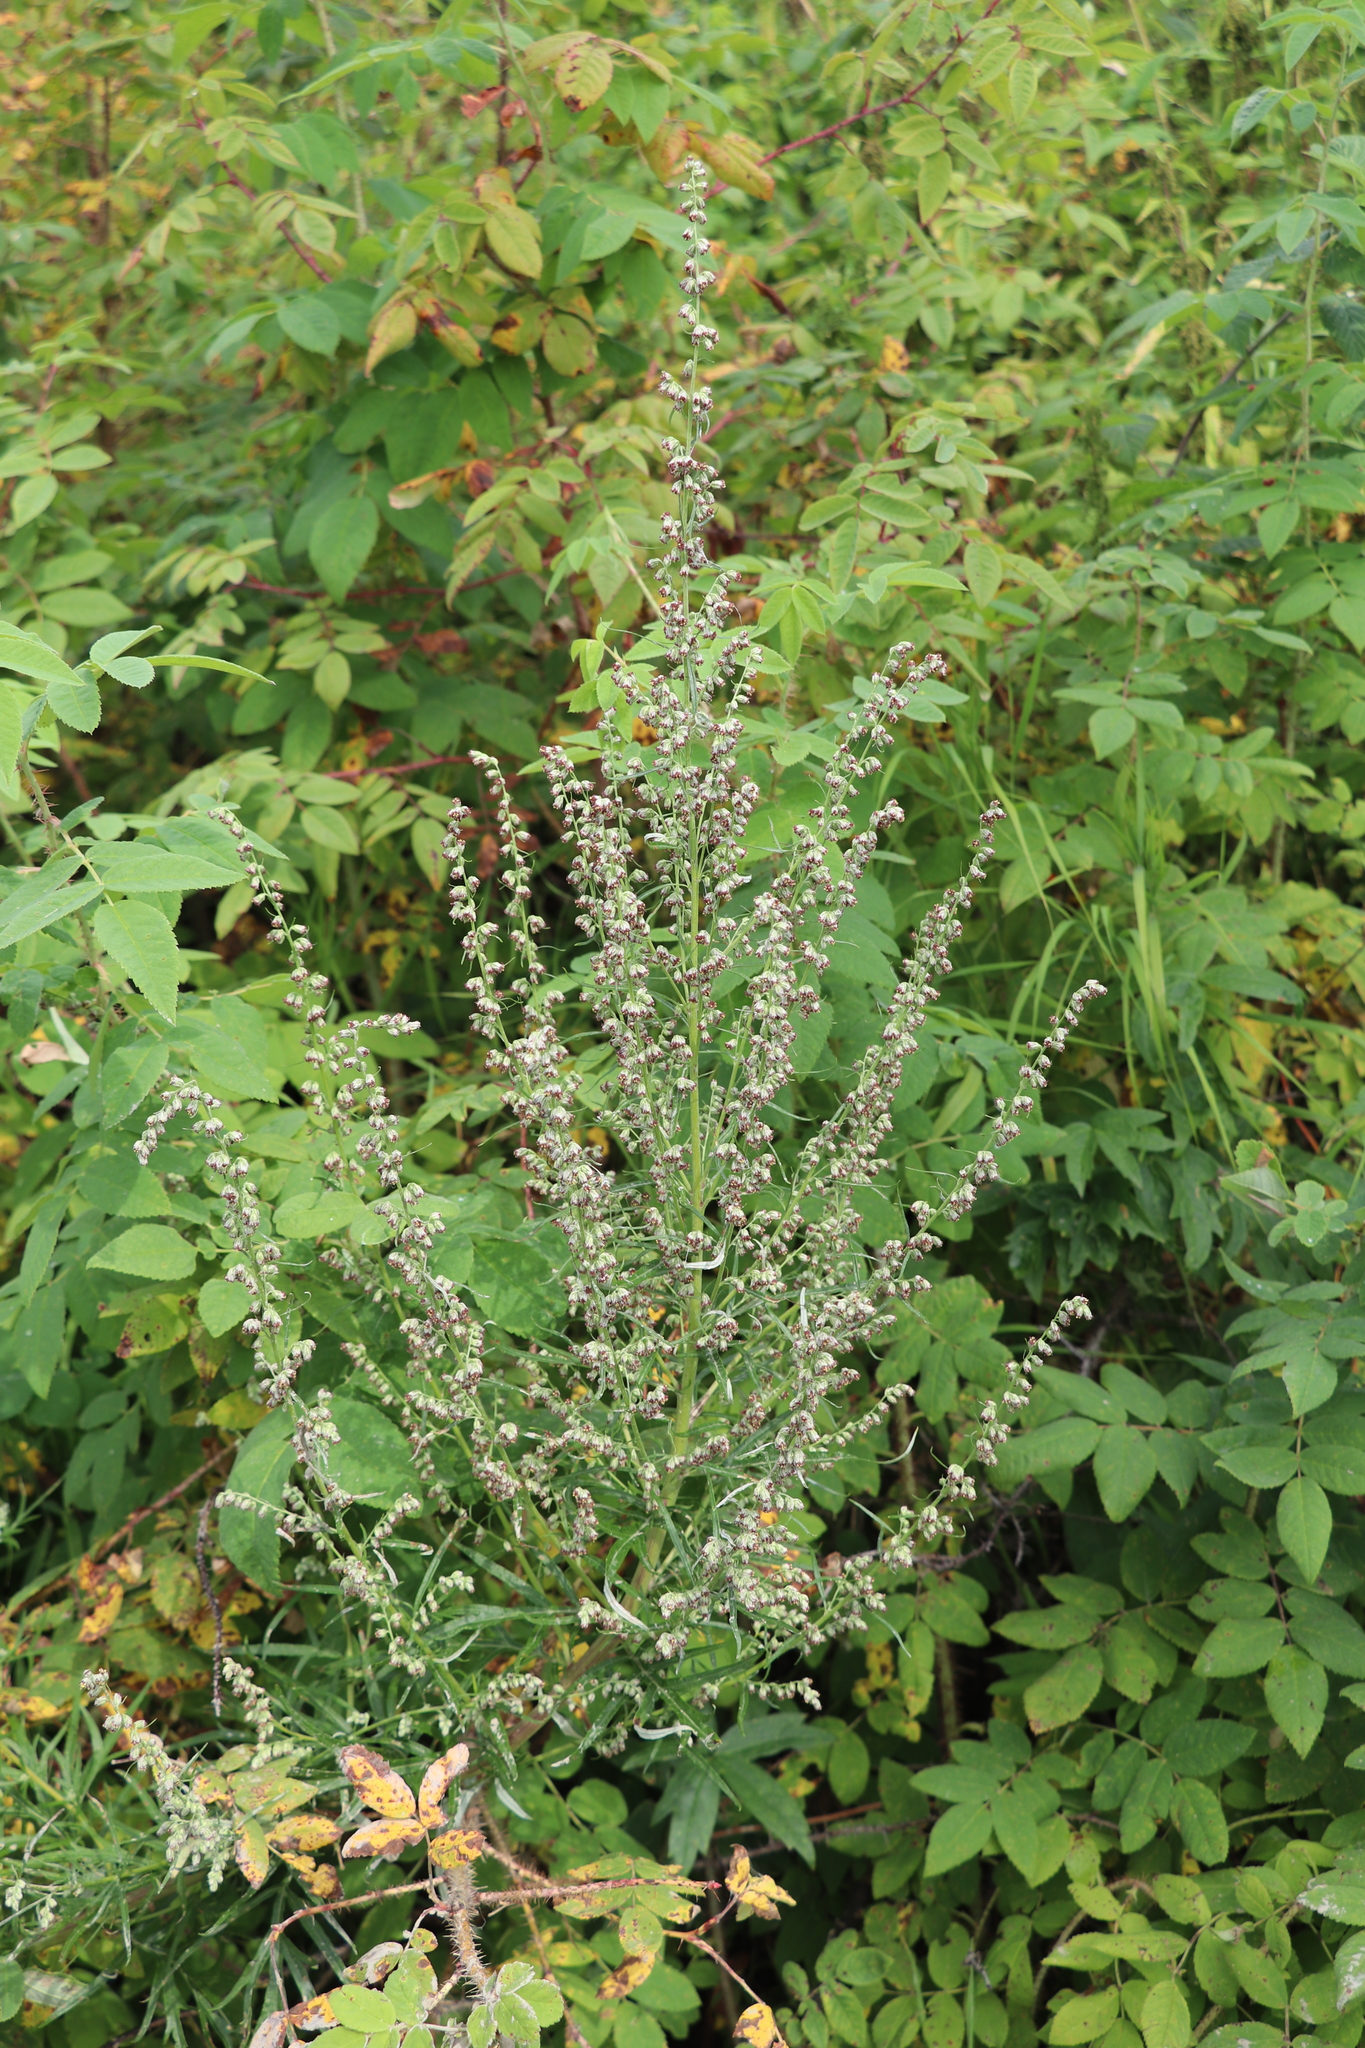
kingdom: Plantae
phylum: Tracheophyta
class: Magnoliopsida
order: Asterales
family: Asteraceae
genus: Artemisia
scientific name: Artemisia vulgaris
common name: Mugwort
